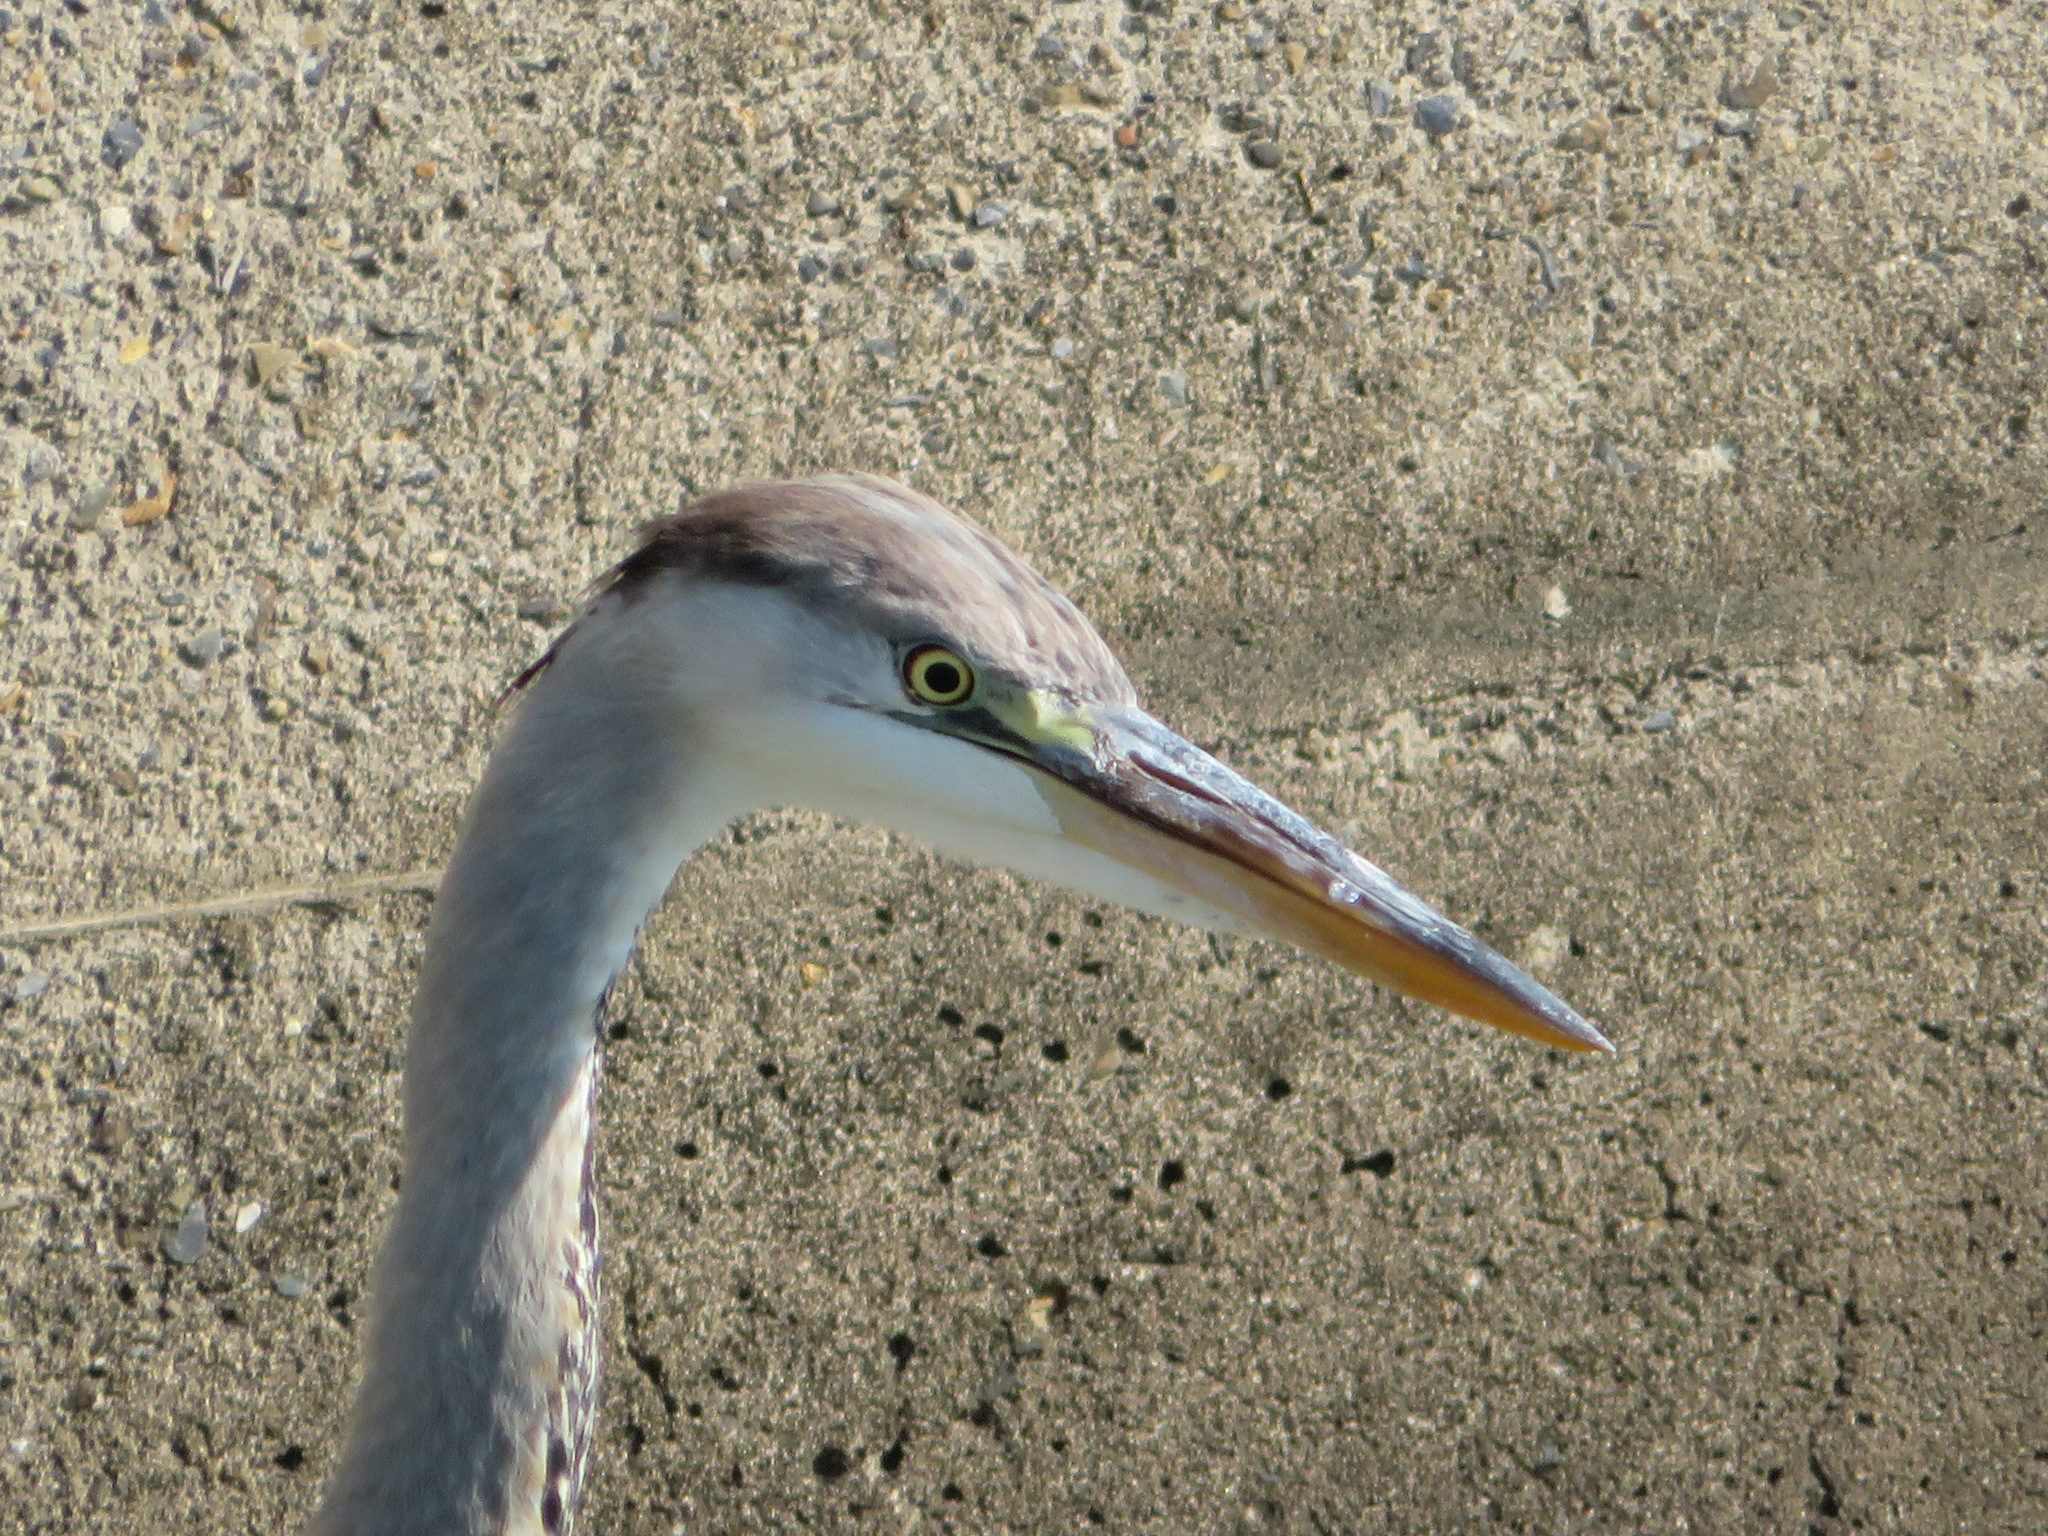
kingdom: Animalia
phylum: Chordata
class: Aves
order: Pelecaniformes
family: Ardeidae
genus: Ardea
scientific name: Ardea cinerea
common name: Grey heron
